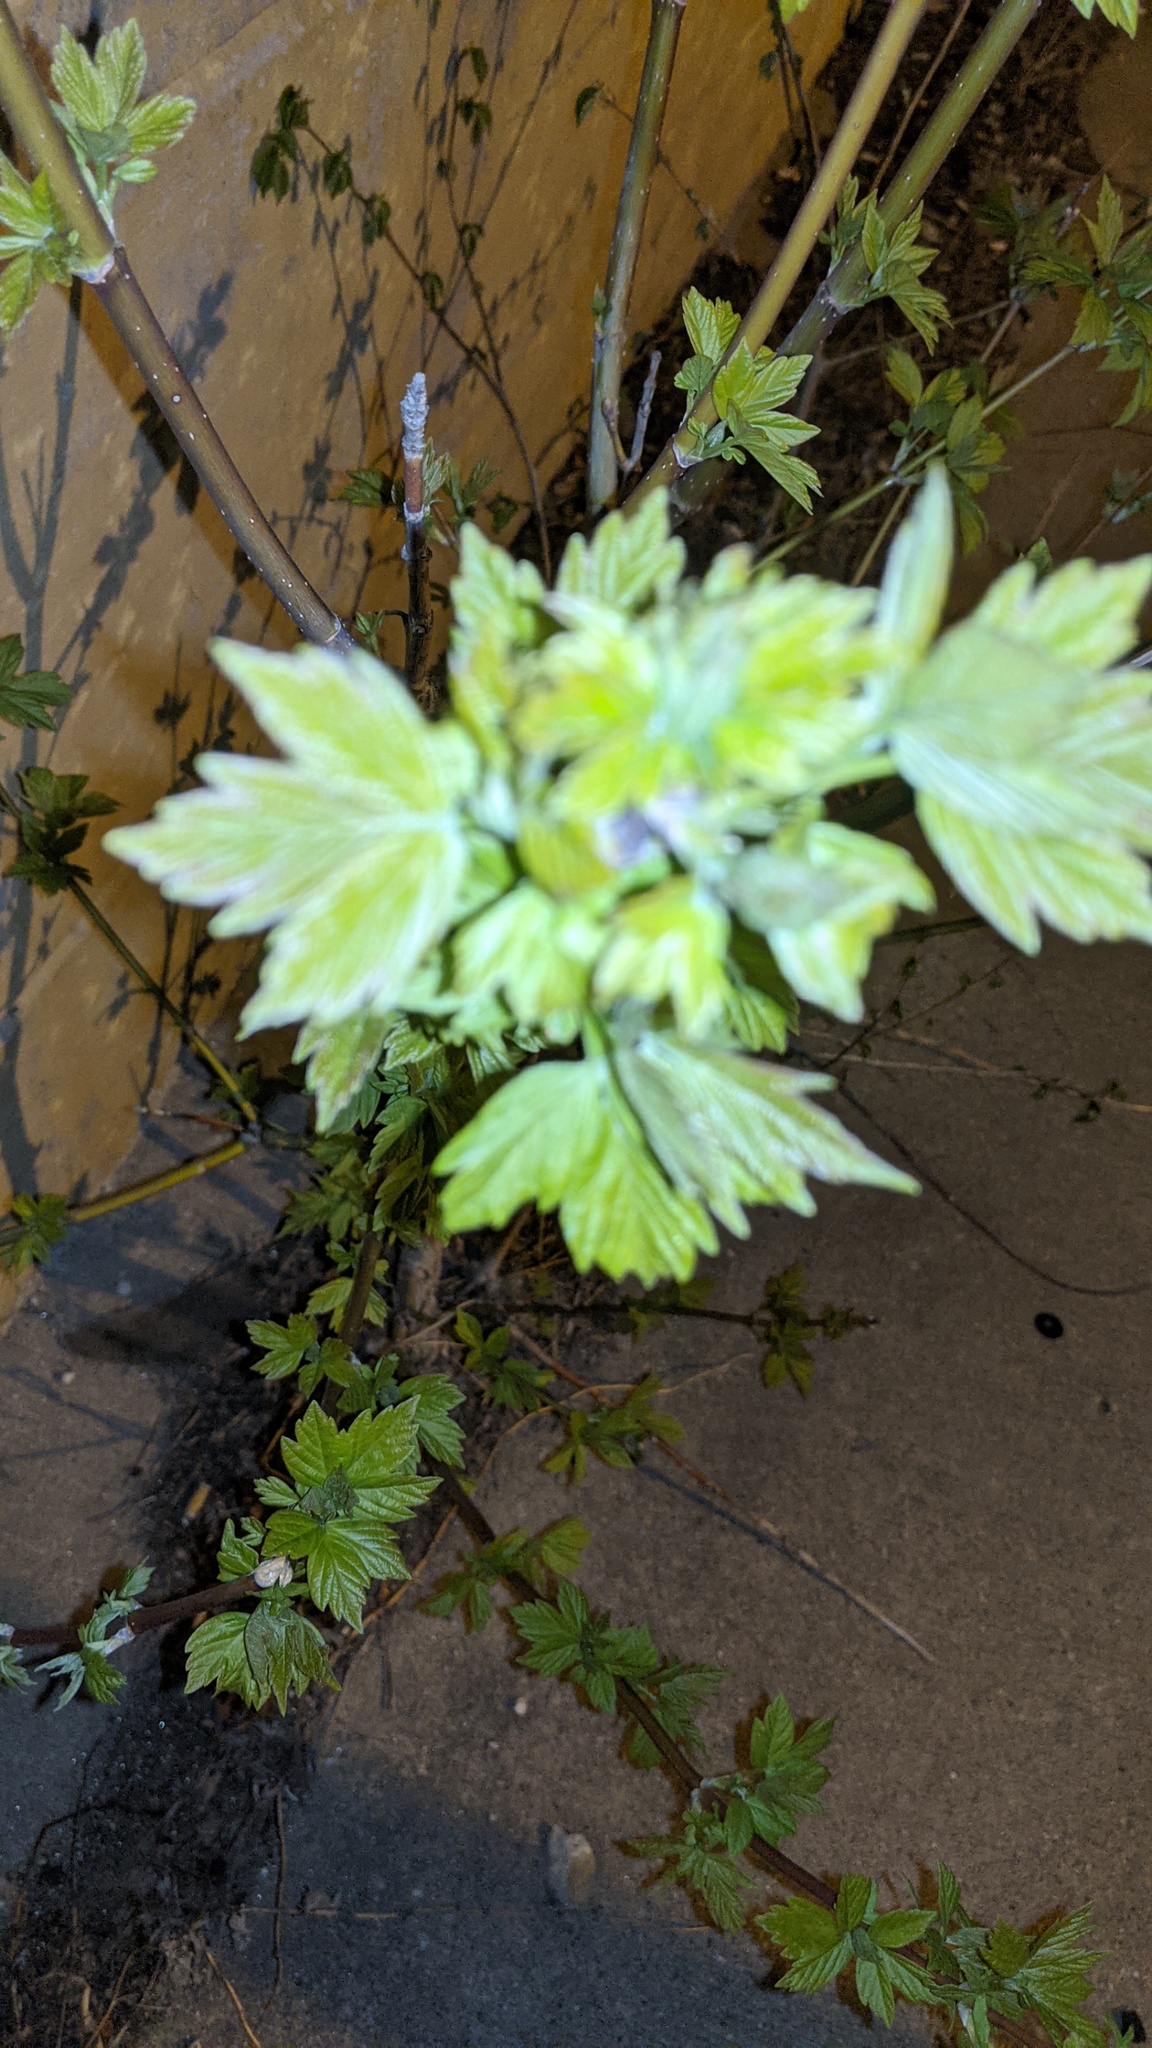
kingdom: Plantae
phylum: Tracheophyta
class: Magnoliopsida
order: Sapindales
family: Sapindaceae
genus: Acer
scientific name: Acer negundo
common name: Ashleaf maple
